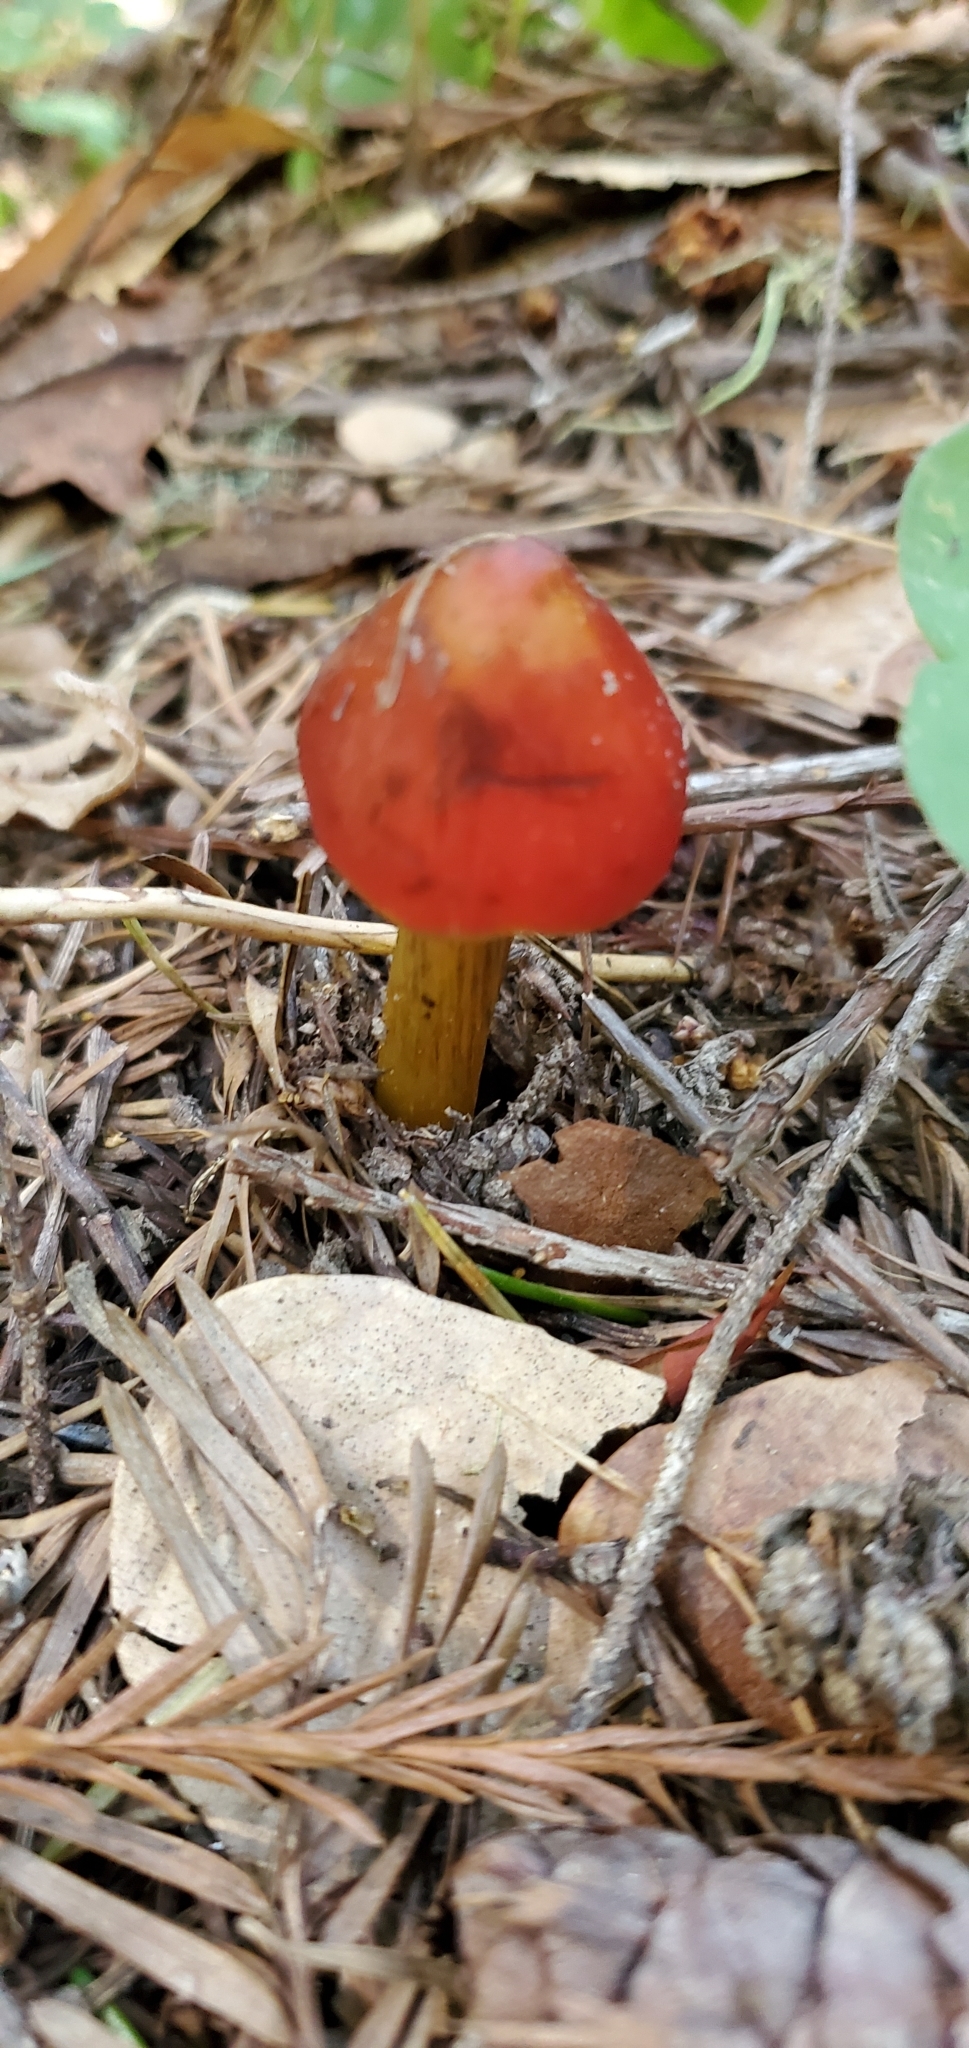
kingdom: Fungi
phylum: Basidiomycota
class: Agaricomycetes
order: Agaricales
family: Hygrophoraceae
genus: Hygrocybe
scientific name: Hygrocybe singeri
